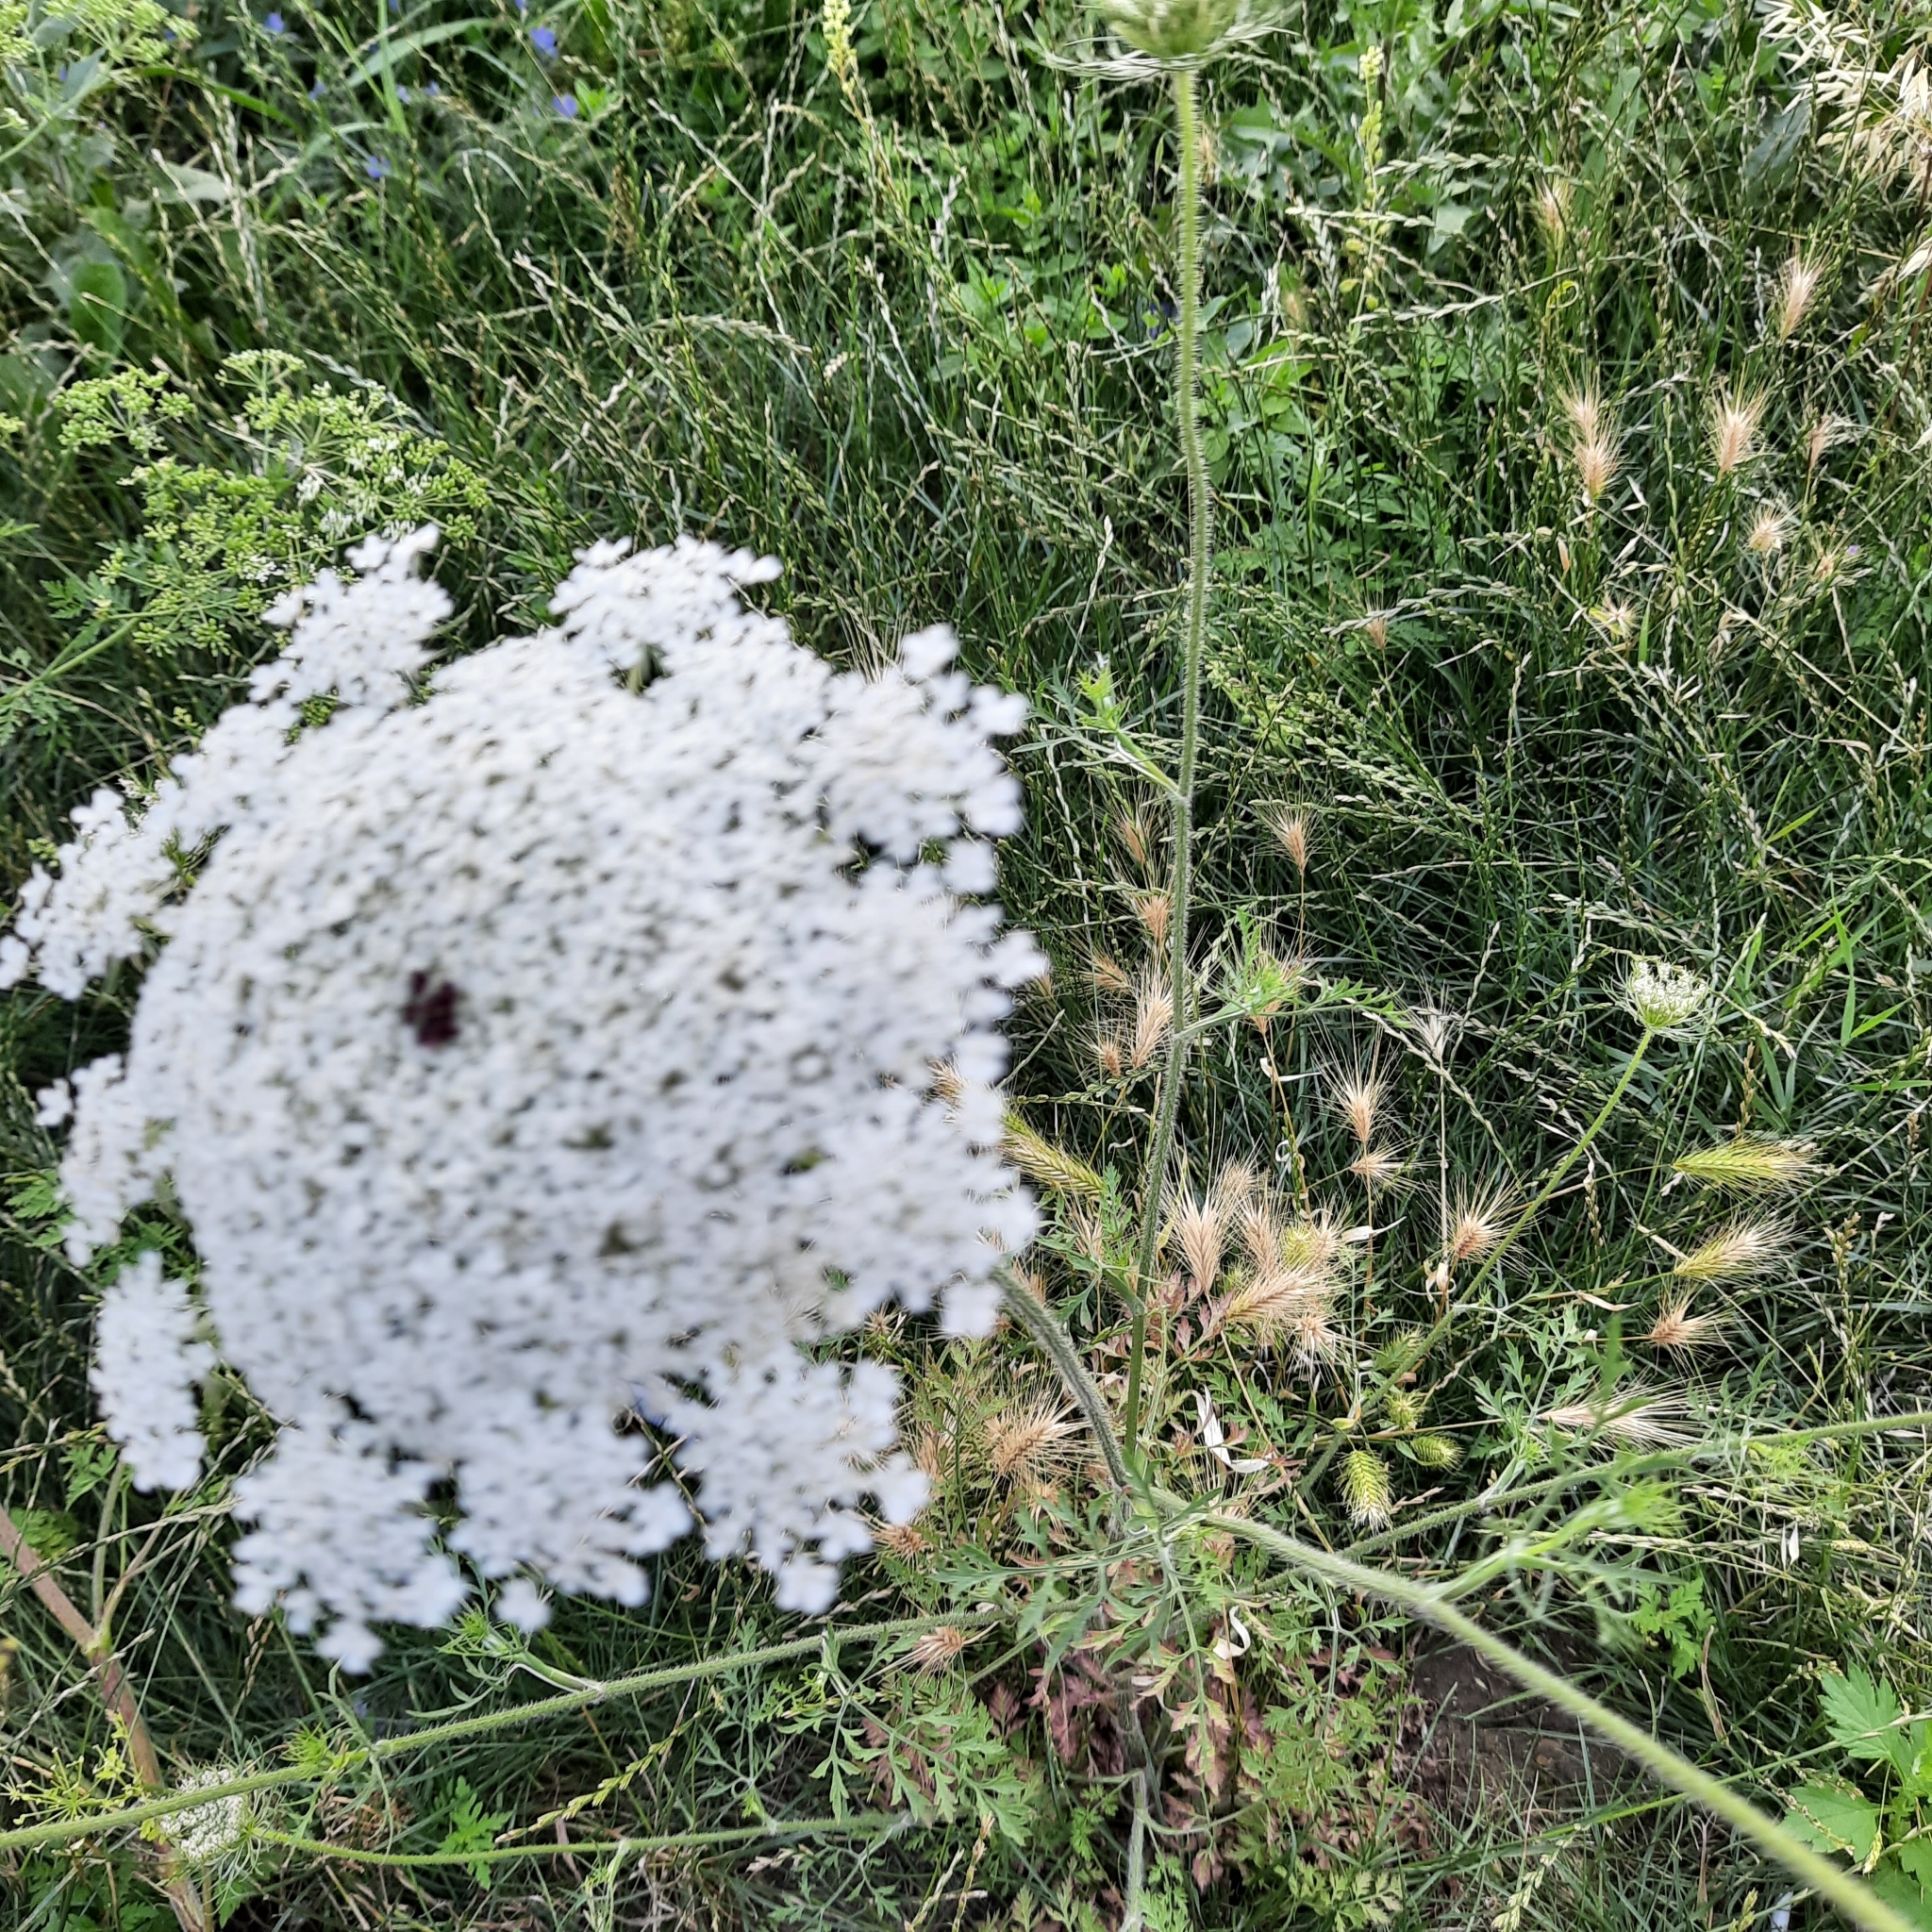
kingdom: Plantae
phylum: Tracheophyta
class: Magnoliopsida
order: Apiales
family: Apiaceae
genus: Daucus
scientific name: Daucus carota
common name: Wild carrot
